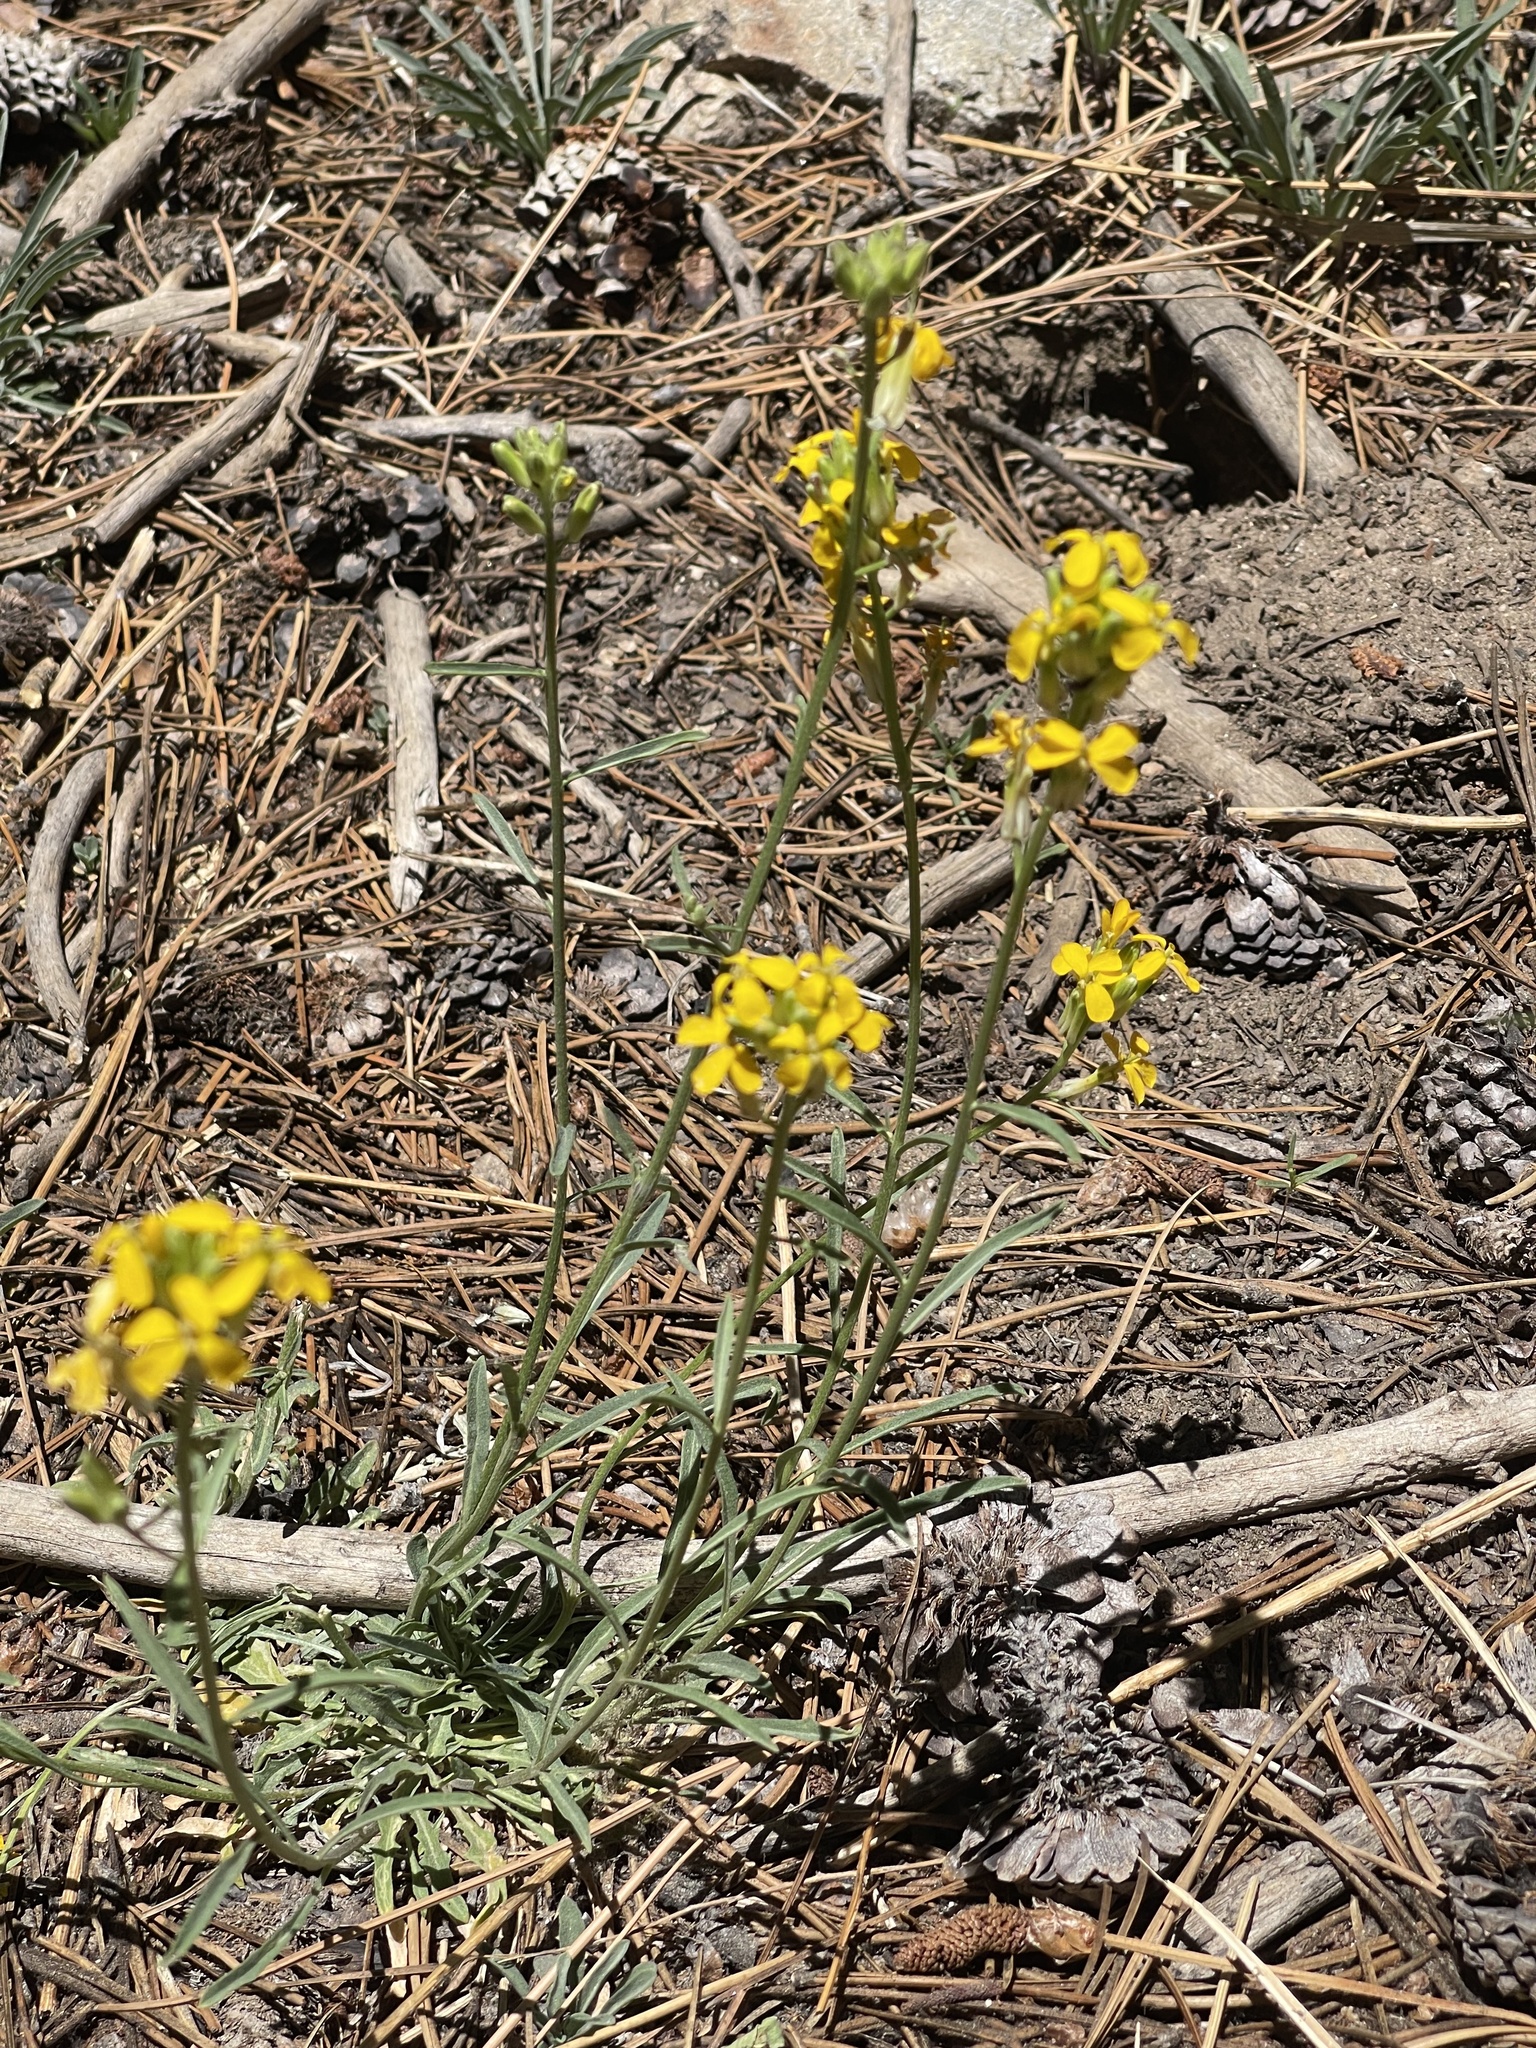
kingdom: Plantae
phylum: Tracheophyta
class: Magnoliopsida
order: Brassicales
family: Brassicaceae
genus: Erysimum
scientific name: Erysimum capitatum
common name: Western wallflower
